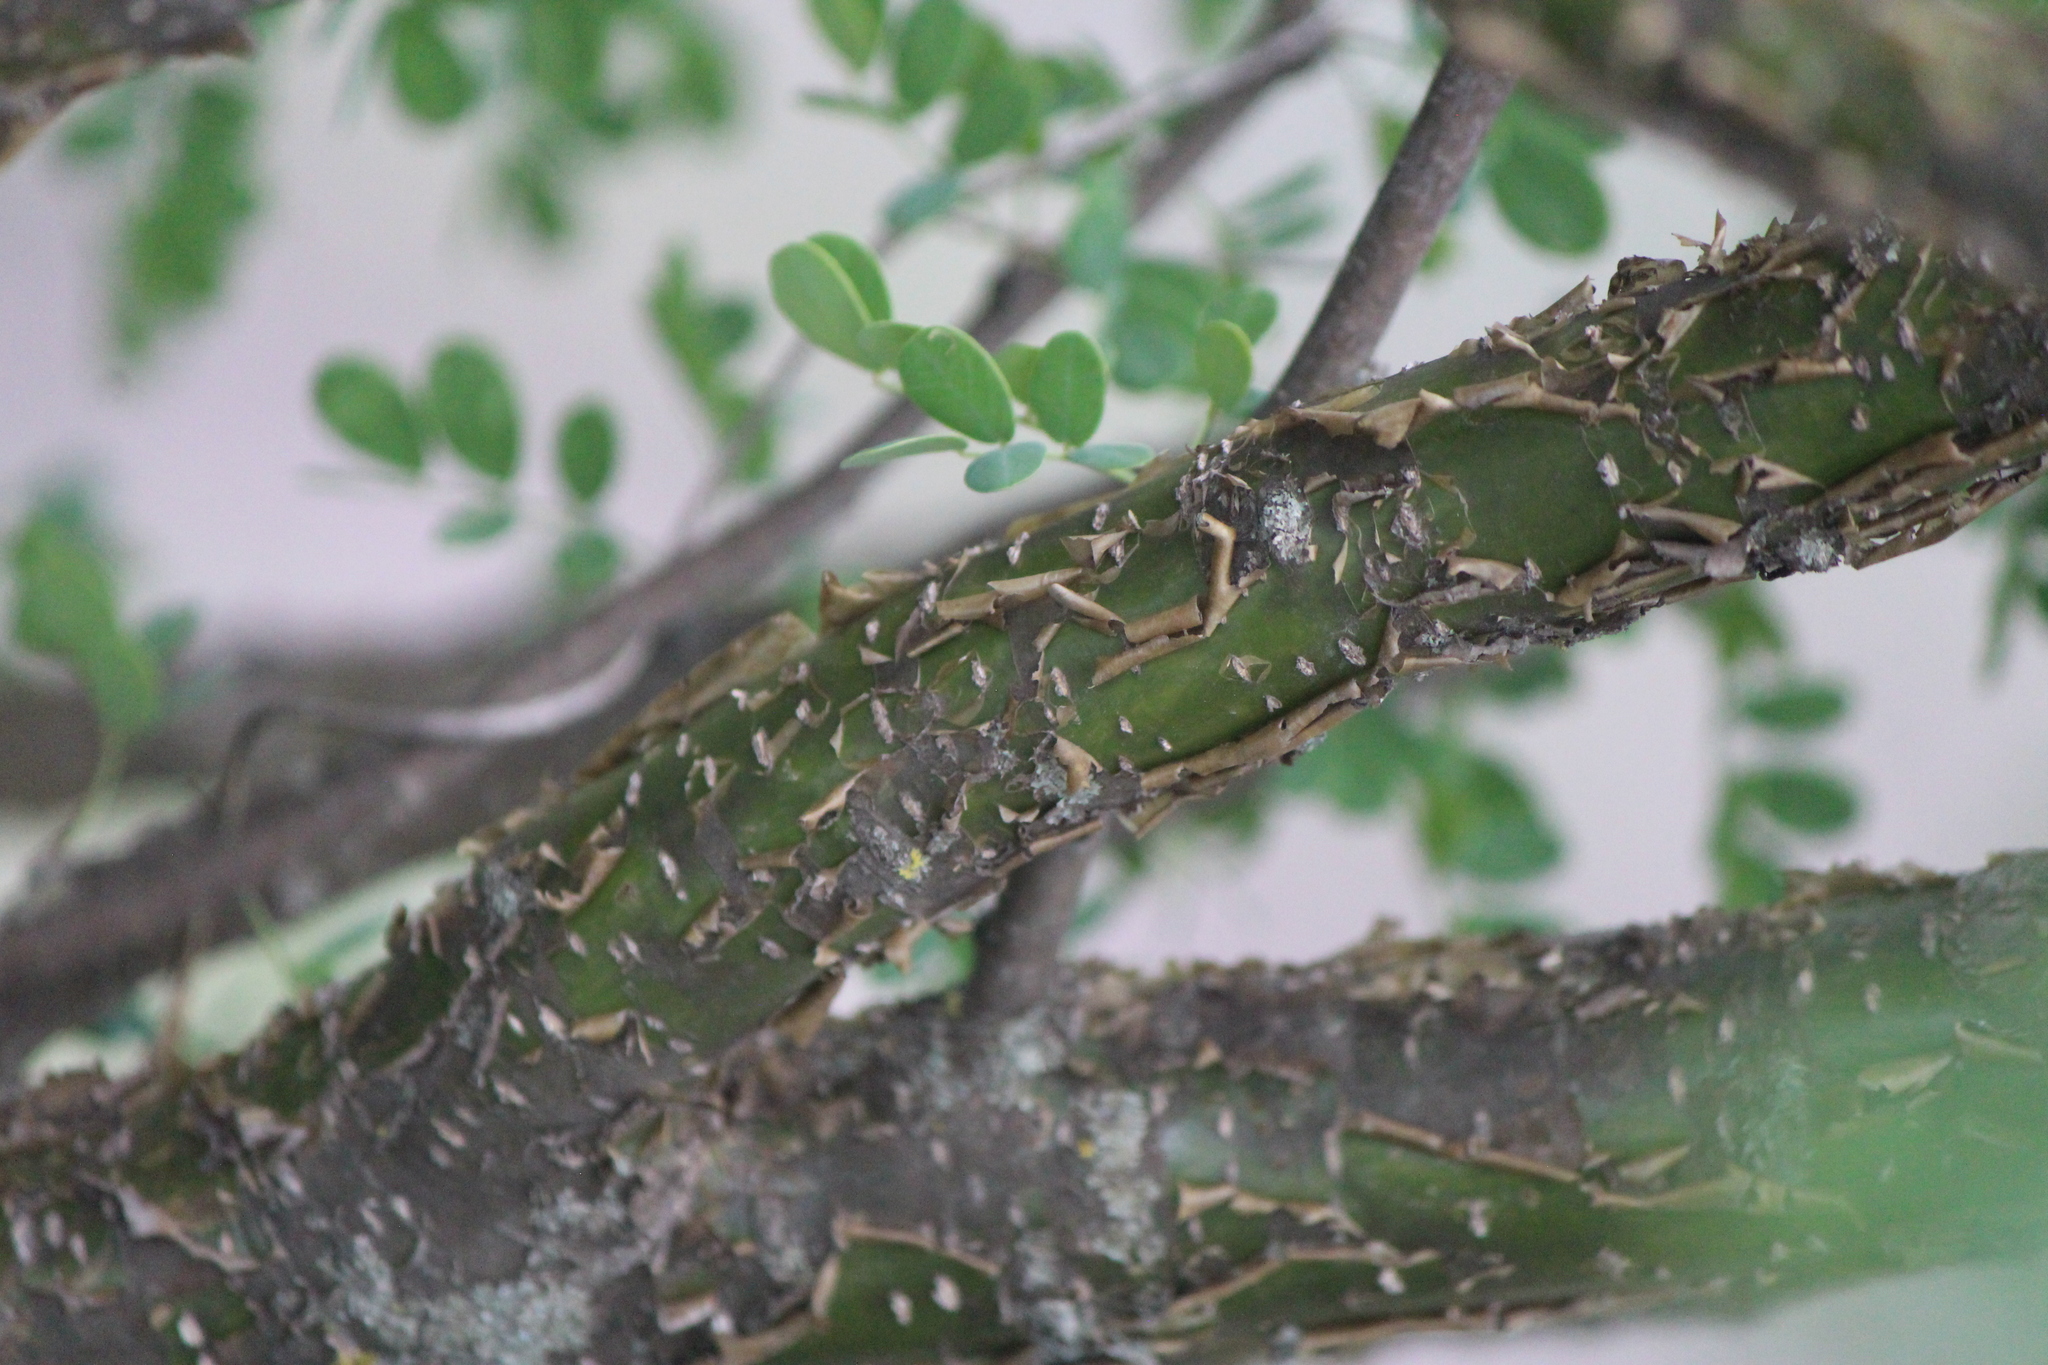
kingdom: Plantae
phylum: Tracheophyta
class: Magnoliopsida
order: Fabales
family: Fabaceae
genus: Senna
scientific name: Senna wislizeni
